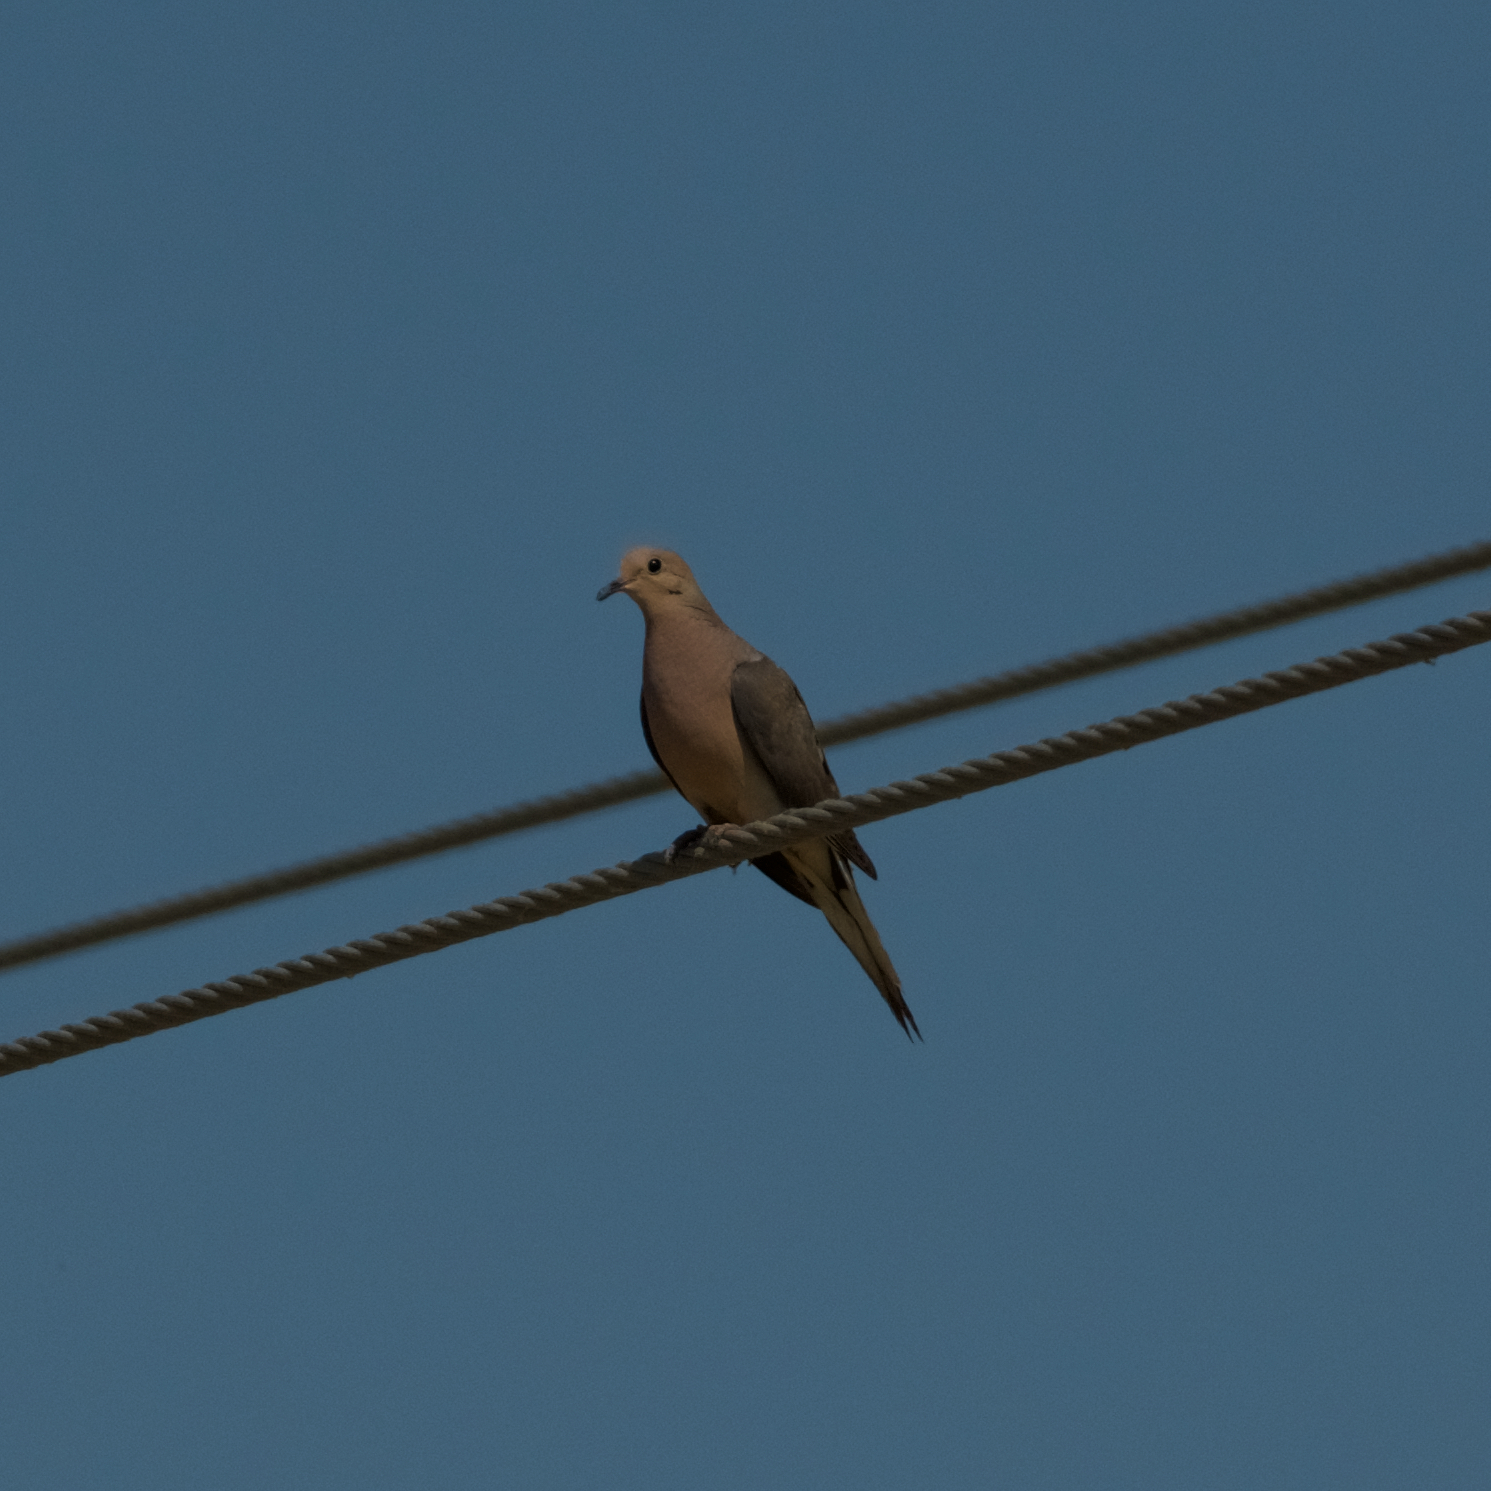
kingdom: Animalia
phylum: Chordata
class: Aves
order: Columbiformes
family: Columbidae
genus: Zenaida
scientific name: Zenaida macroura
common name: Mourning dove
